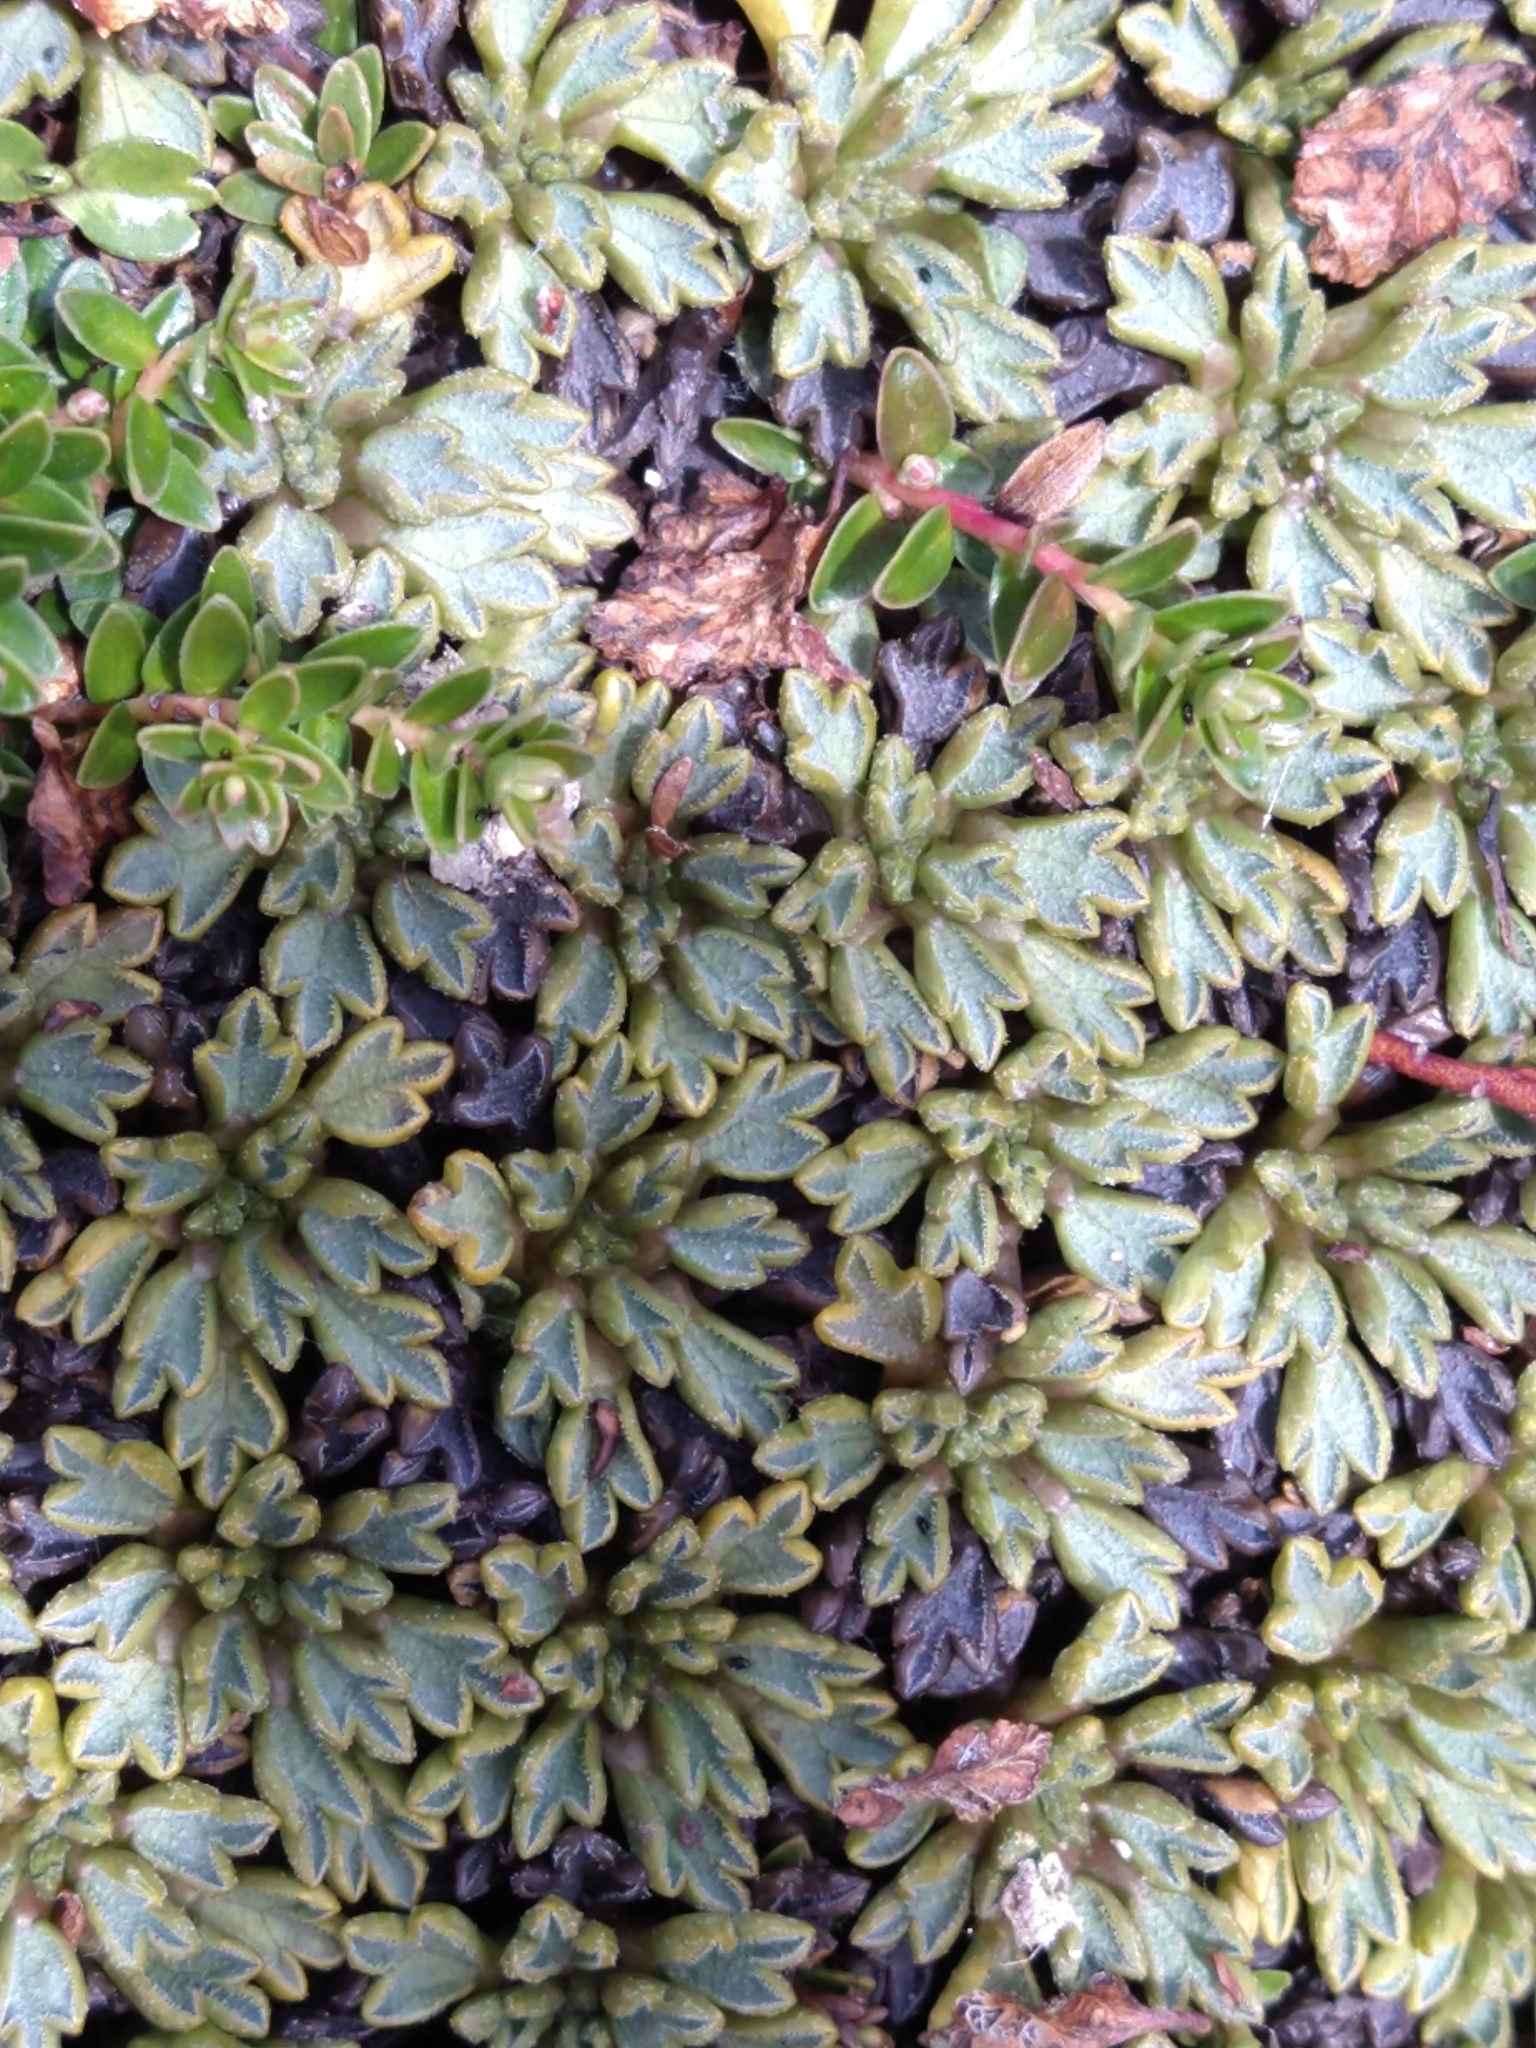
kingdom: Plantae
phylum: Tracheophyta
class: Magnoliopsida
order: Apiales
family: Apiaceae
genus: Bolax
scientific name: Bolax gummifera
